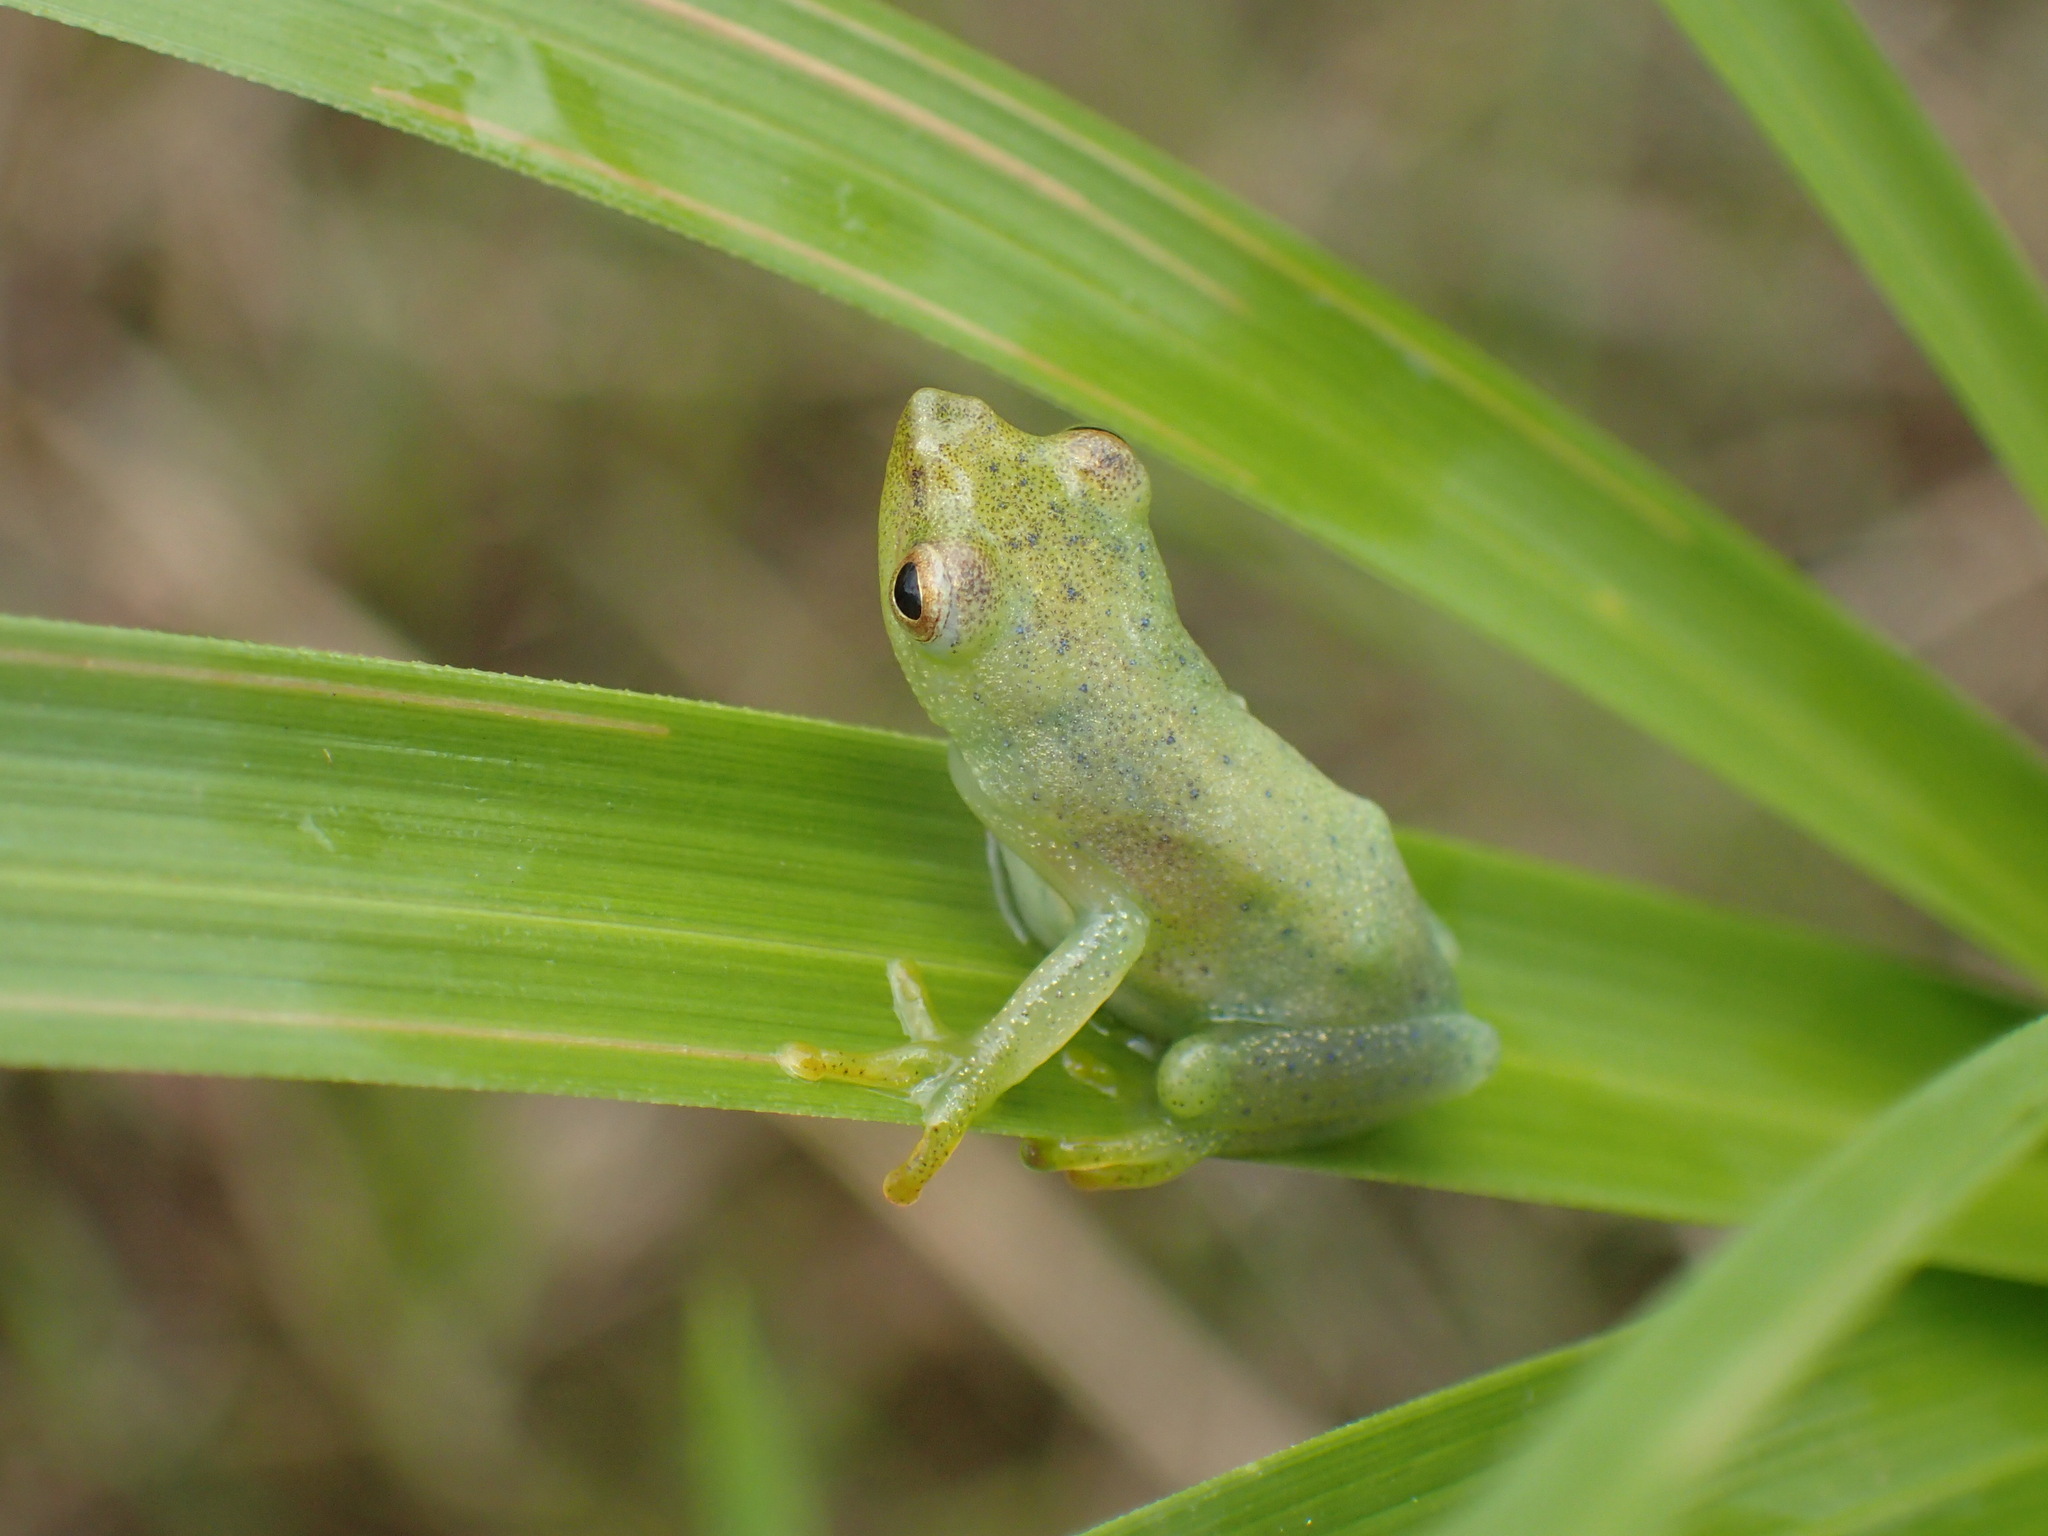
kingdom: Animalia
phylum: Chordata
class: Amphibia
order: Anura
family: Hyperoliidae
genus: Hyperolius
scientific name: Hyperolius nasicus
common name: Pointed long reed frog
